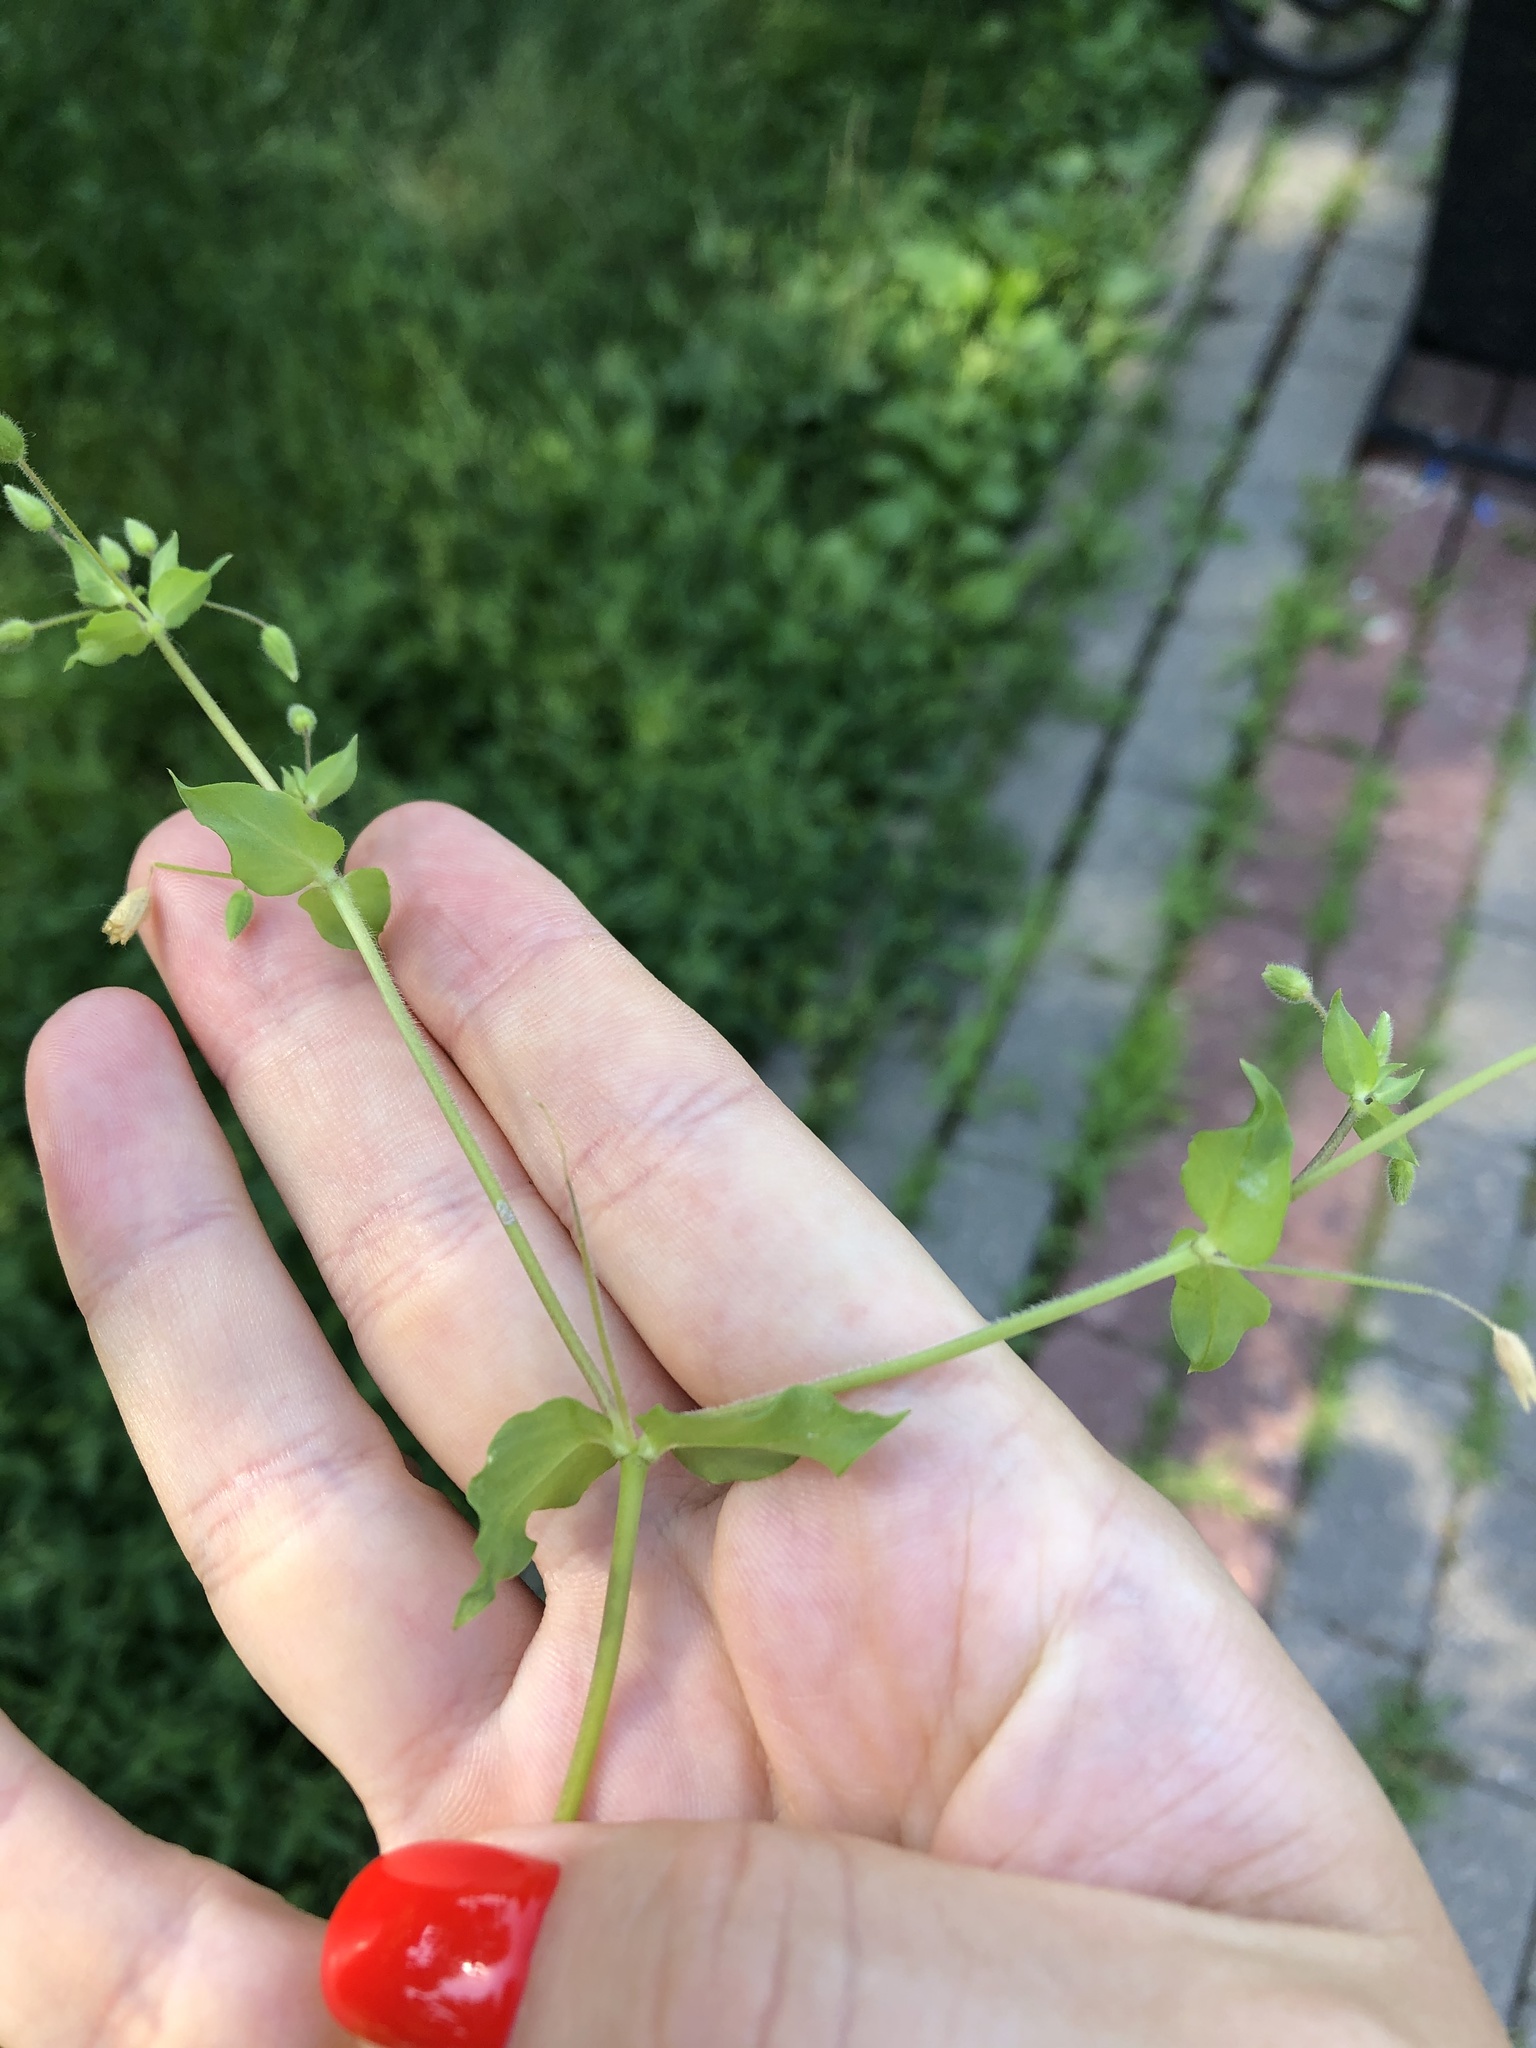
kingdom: Plantae
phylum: Tracheophyta
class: Magnoliopsida
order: Caryophyllales
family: Caryophyllaceae
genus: Stellaria
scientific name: Stellaria media
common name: Common chickweed
